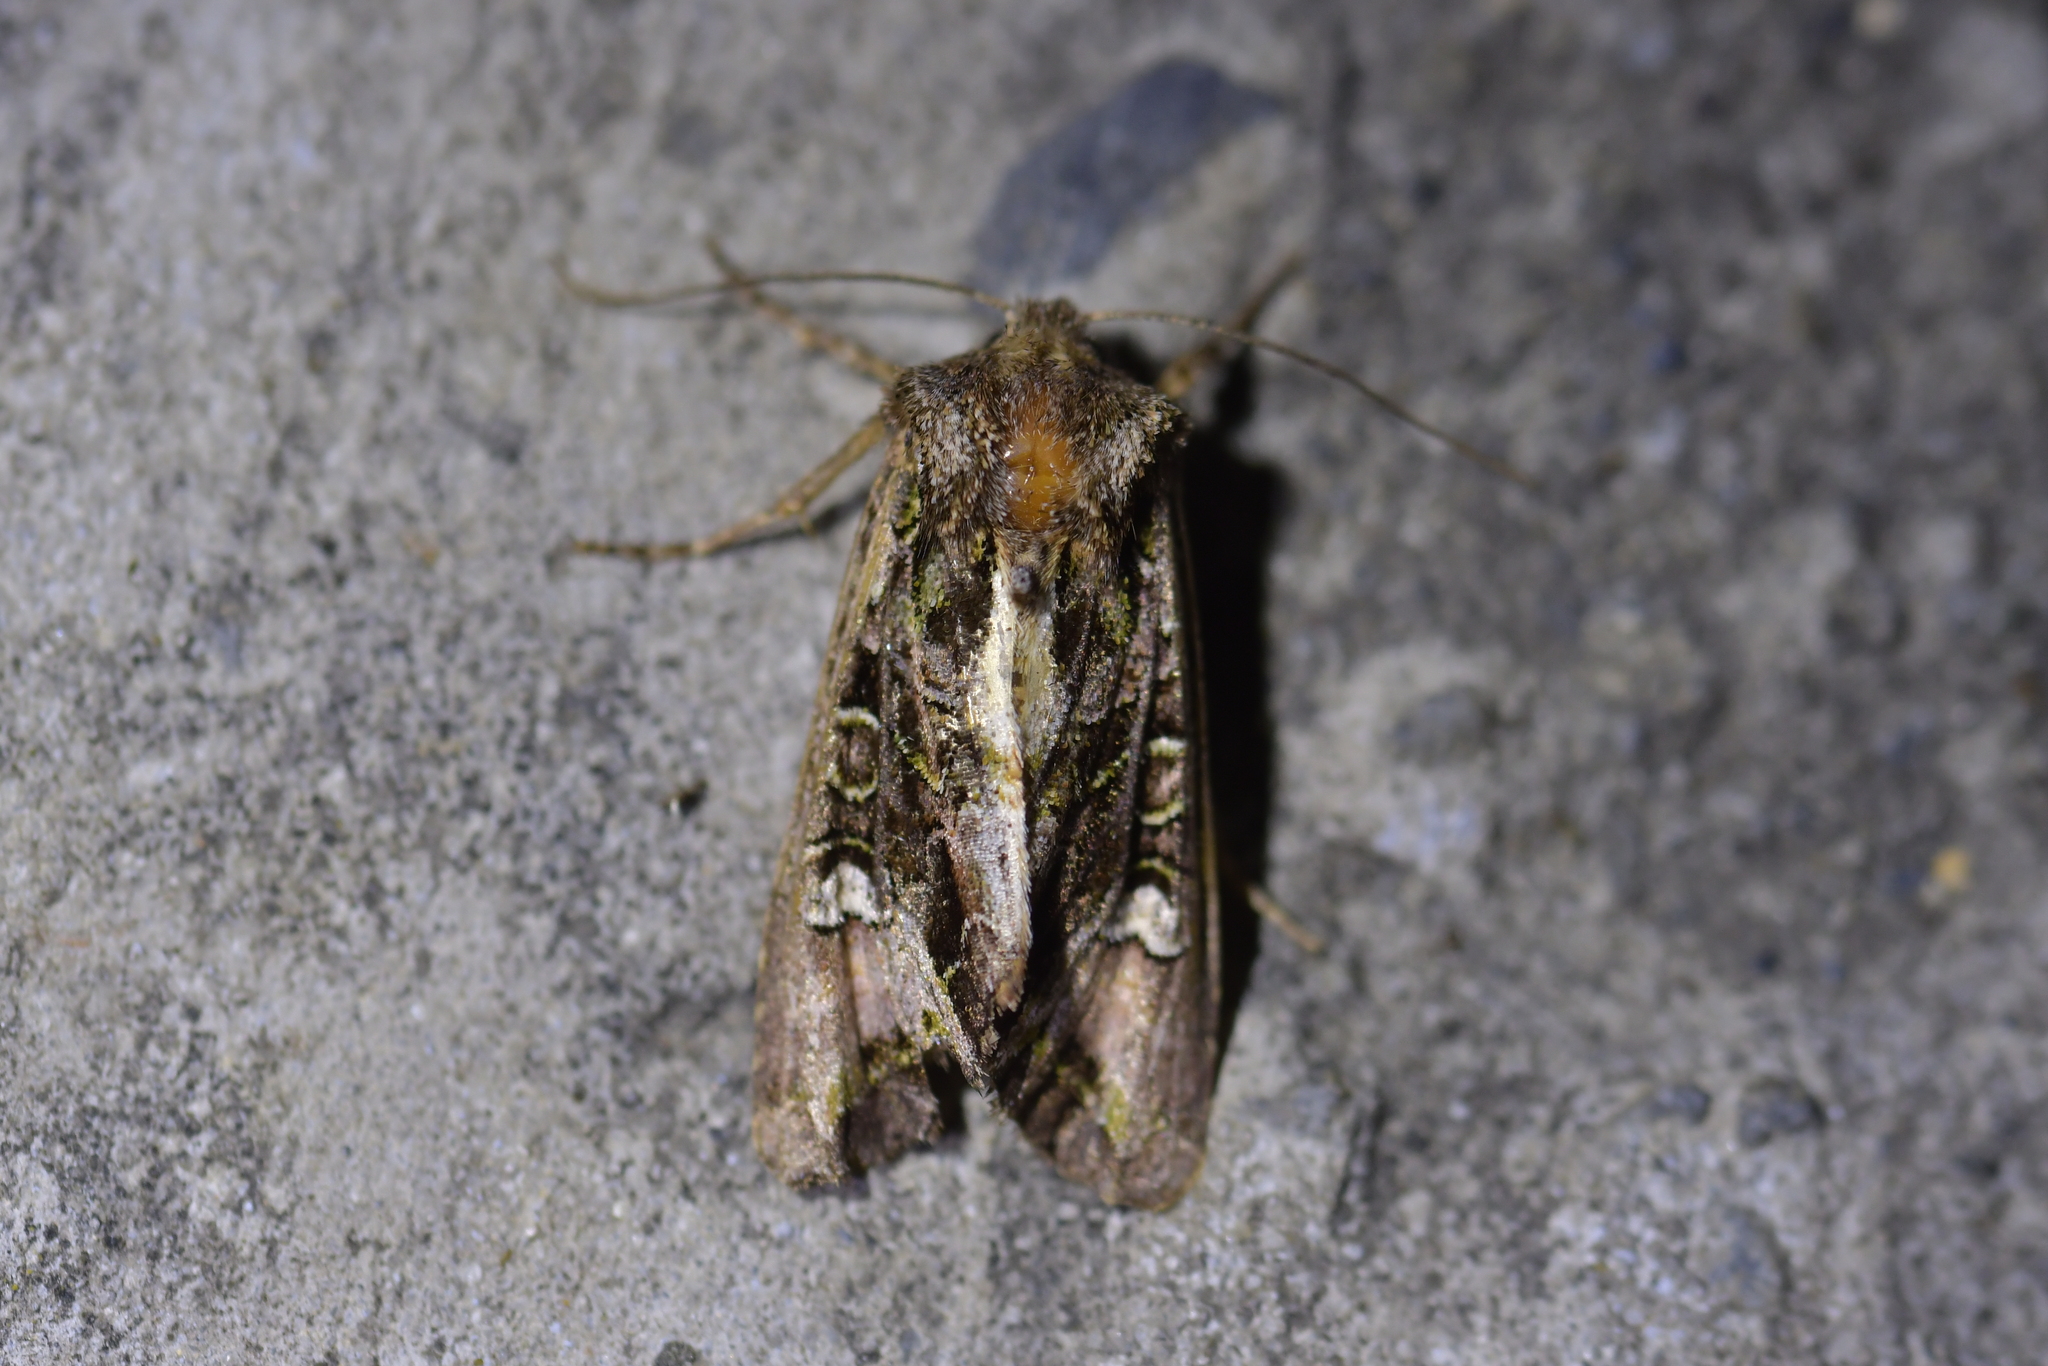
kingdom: Animalia
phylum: Arthropoda
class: Insecta
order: Lepidoptera
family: Noctuidae
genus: Ichneutica
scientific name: Ichneutica insignis
